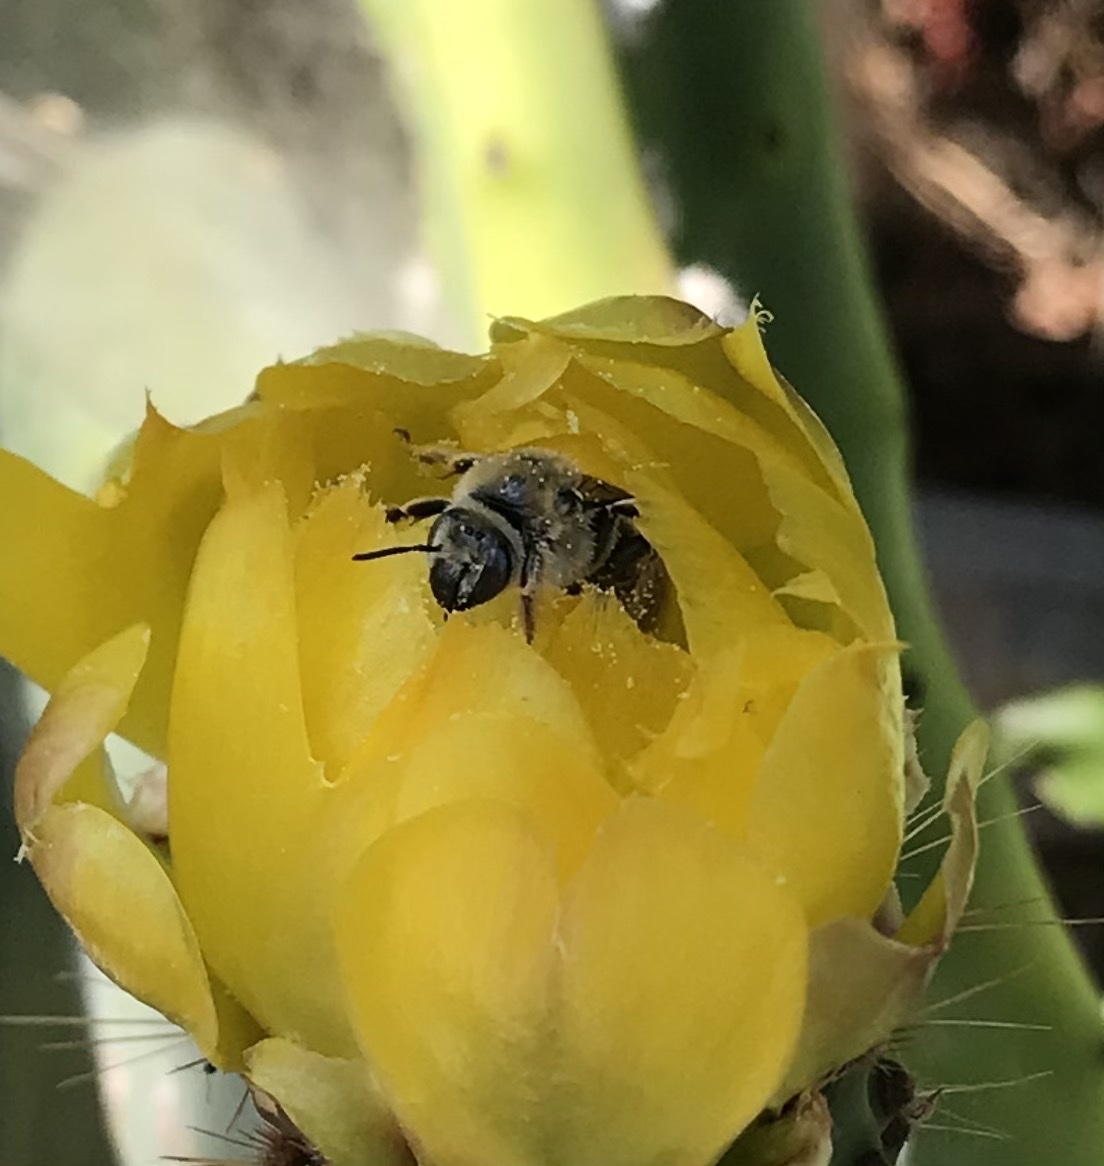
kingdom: Animalia
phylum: Arthropoda
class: Insecta
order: Hymenoptera
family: Apidae
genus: Diadasia
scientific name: Diadasia
